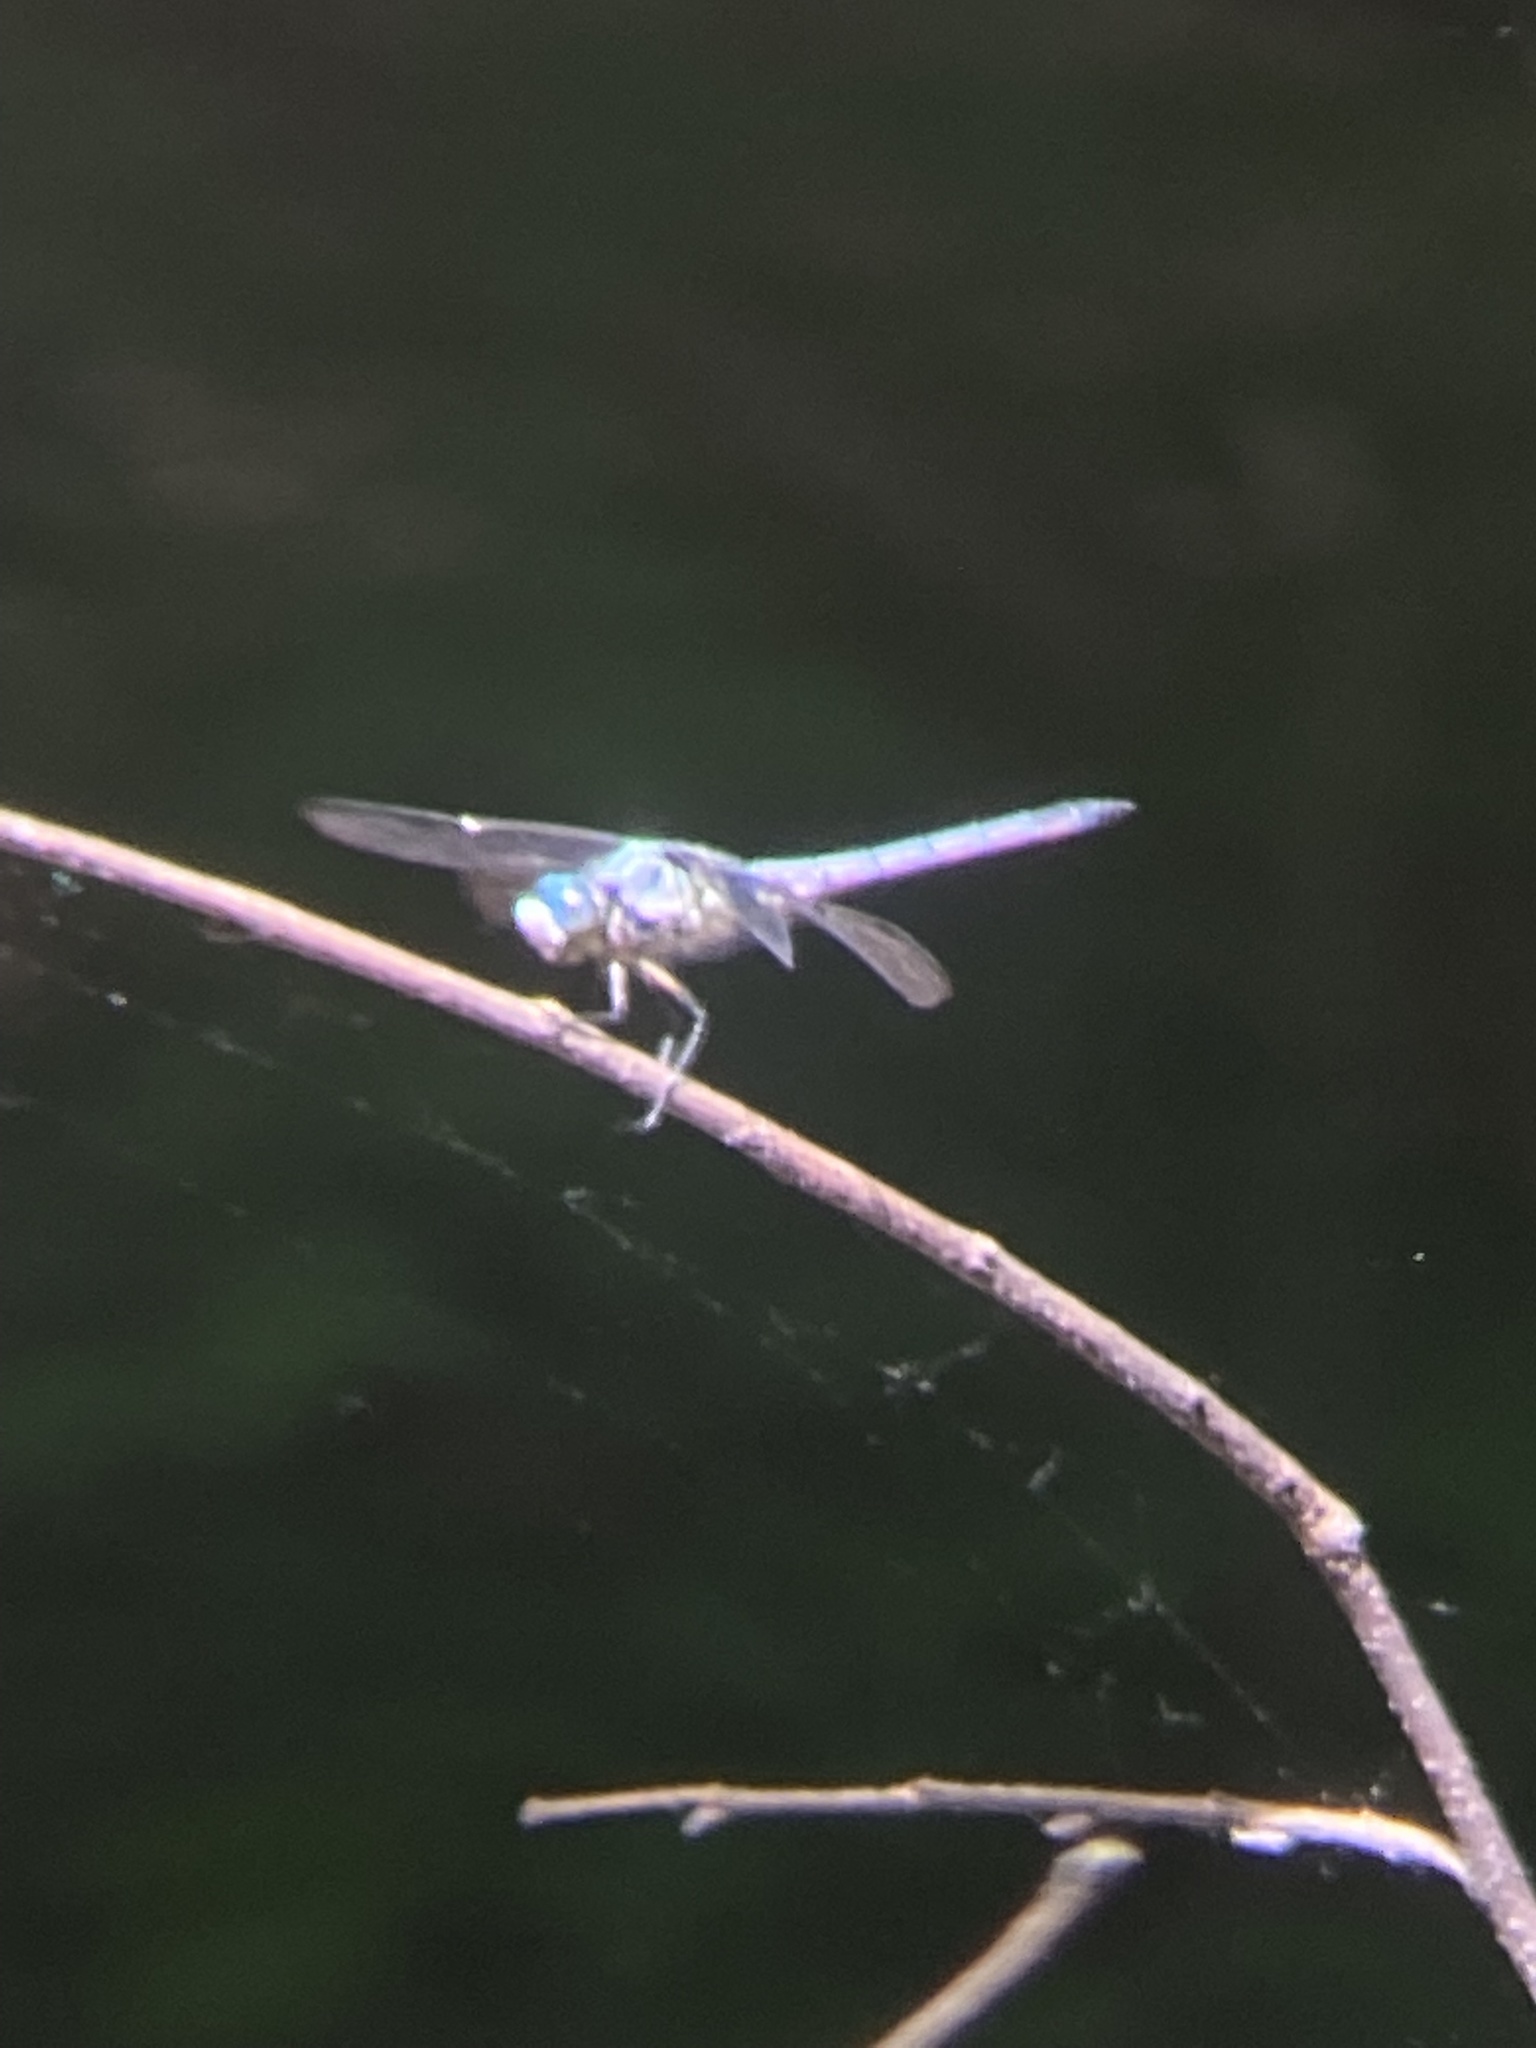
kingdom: Animalia
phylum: Arthropoda
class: Insecta
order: Odonata
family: Libellulidae
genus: Libellula
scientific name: Libellula vibrans
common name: Great blue skimmer
